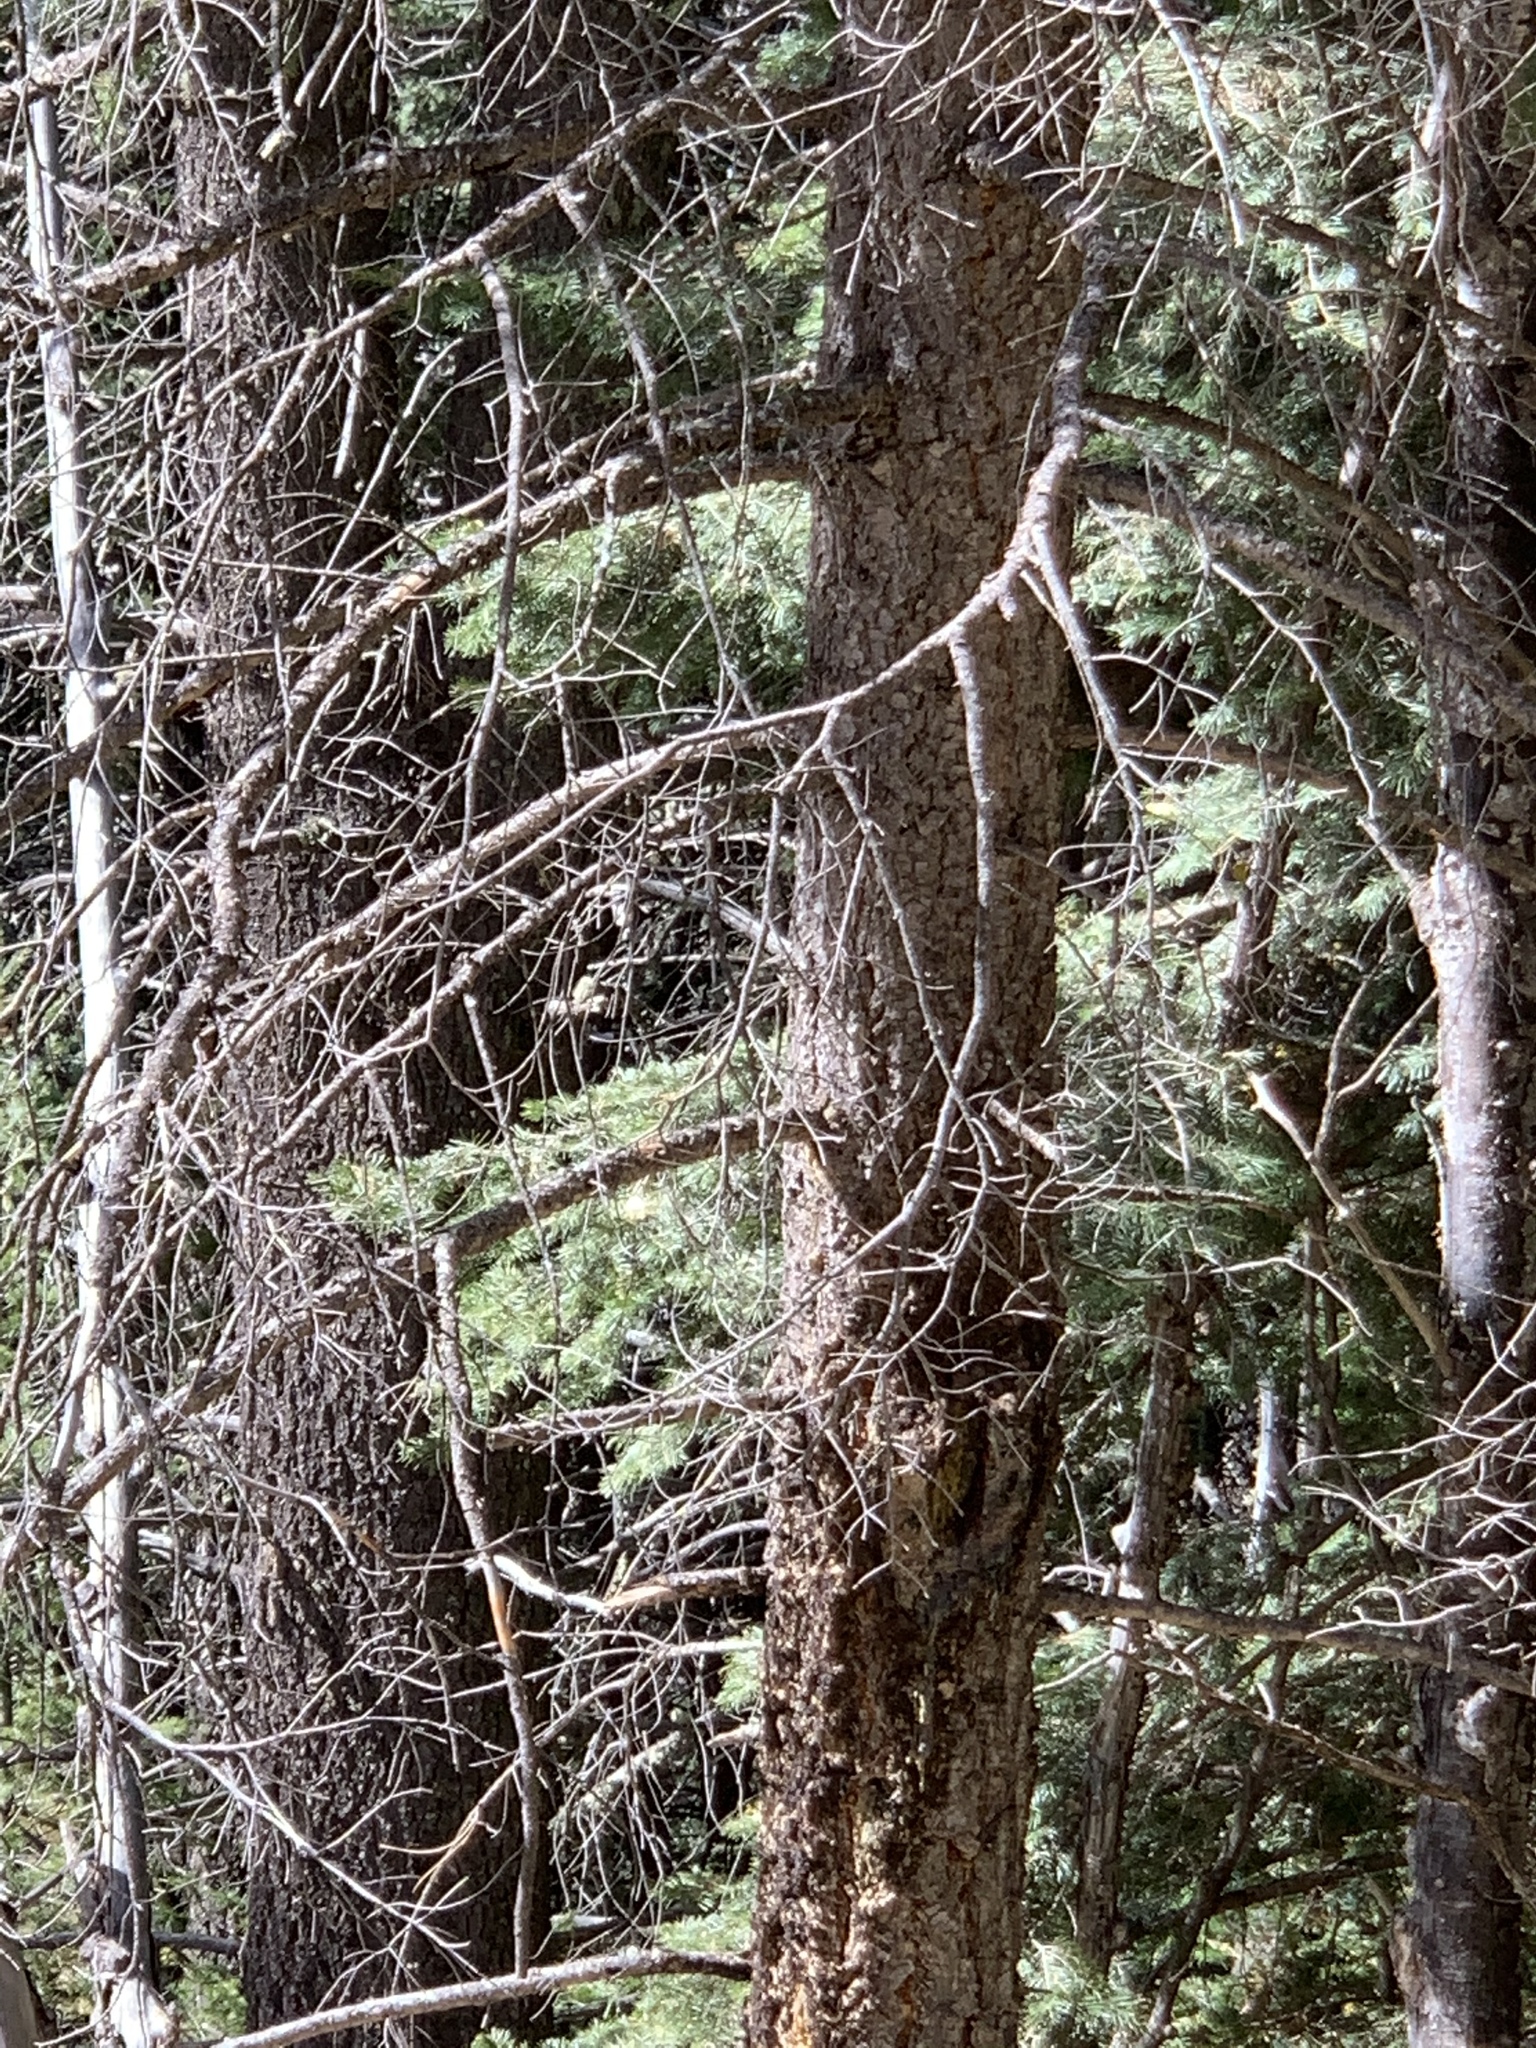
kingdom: Plantae
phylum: Tracheophyta
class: Pinopsida
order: Pinales
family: Pinaceae
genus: Pseudotsuga
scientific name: Pseudotsuga menziesii
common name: Douglas fir
